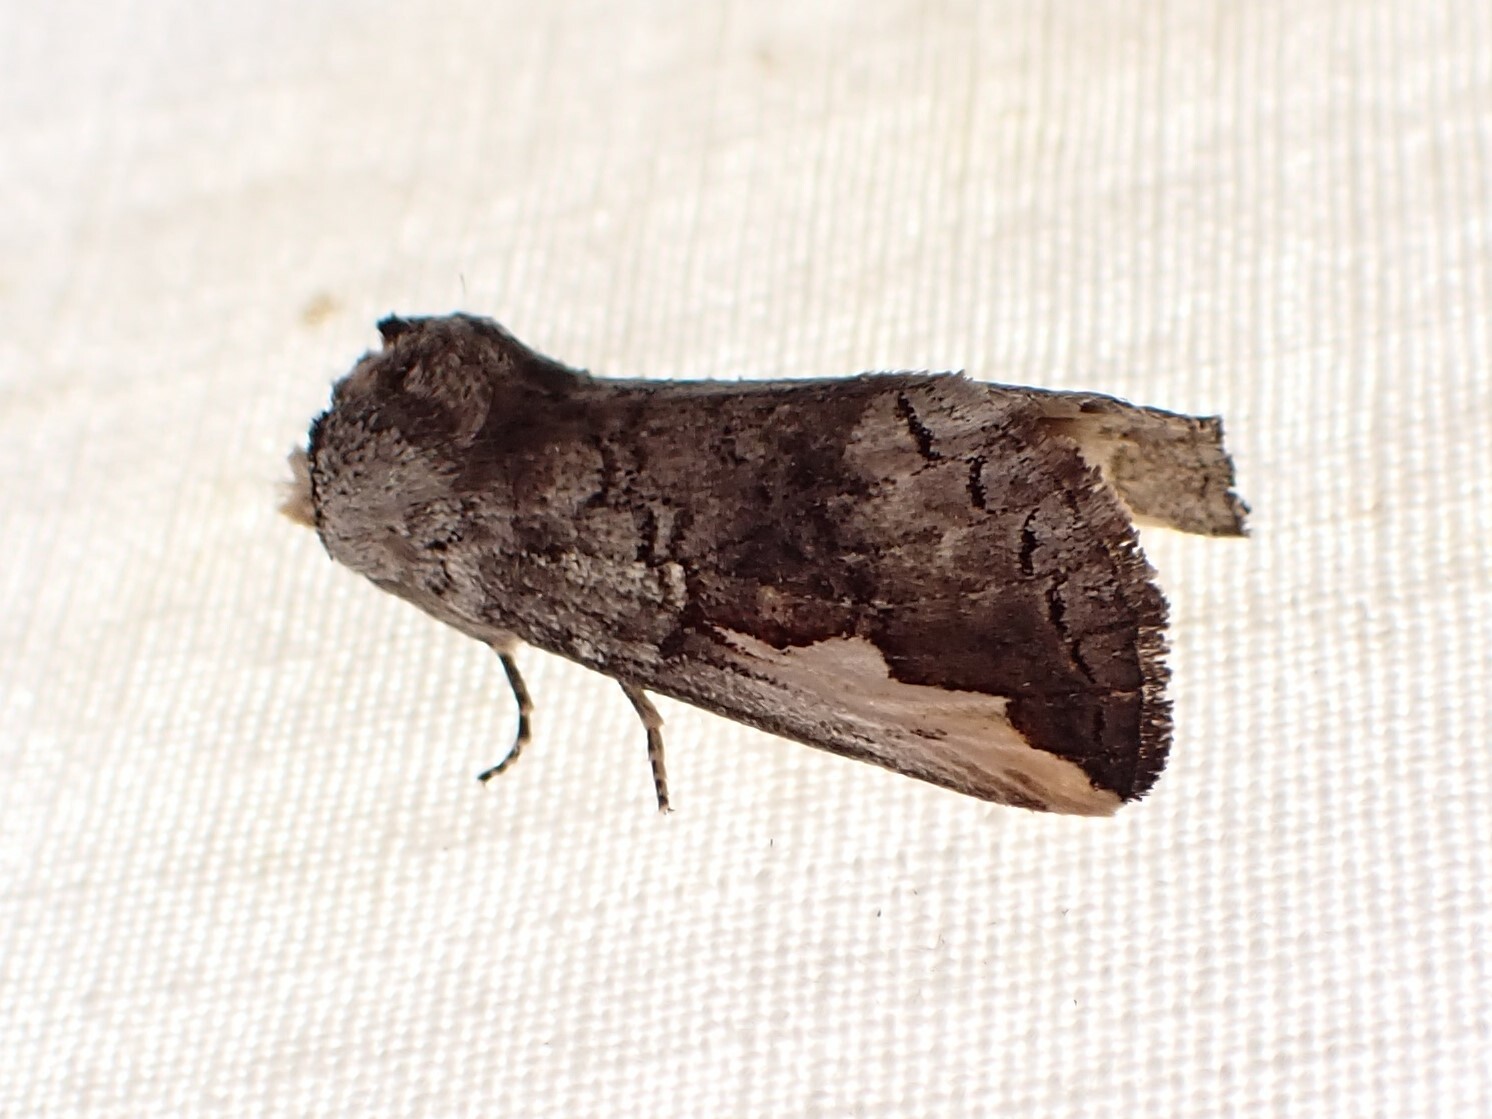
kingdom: Animalia
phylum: Arthropoda
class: Insecta
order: Lepidoptera
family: Notodontidae
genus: Symmerista
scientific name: Symmerista leucitys
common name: Orange-humped mapleworm
